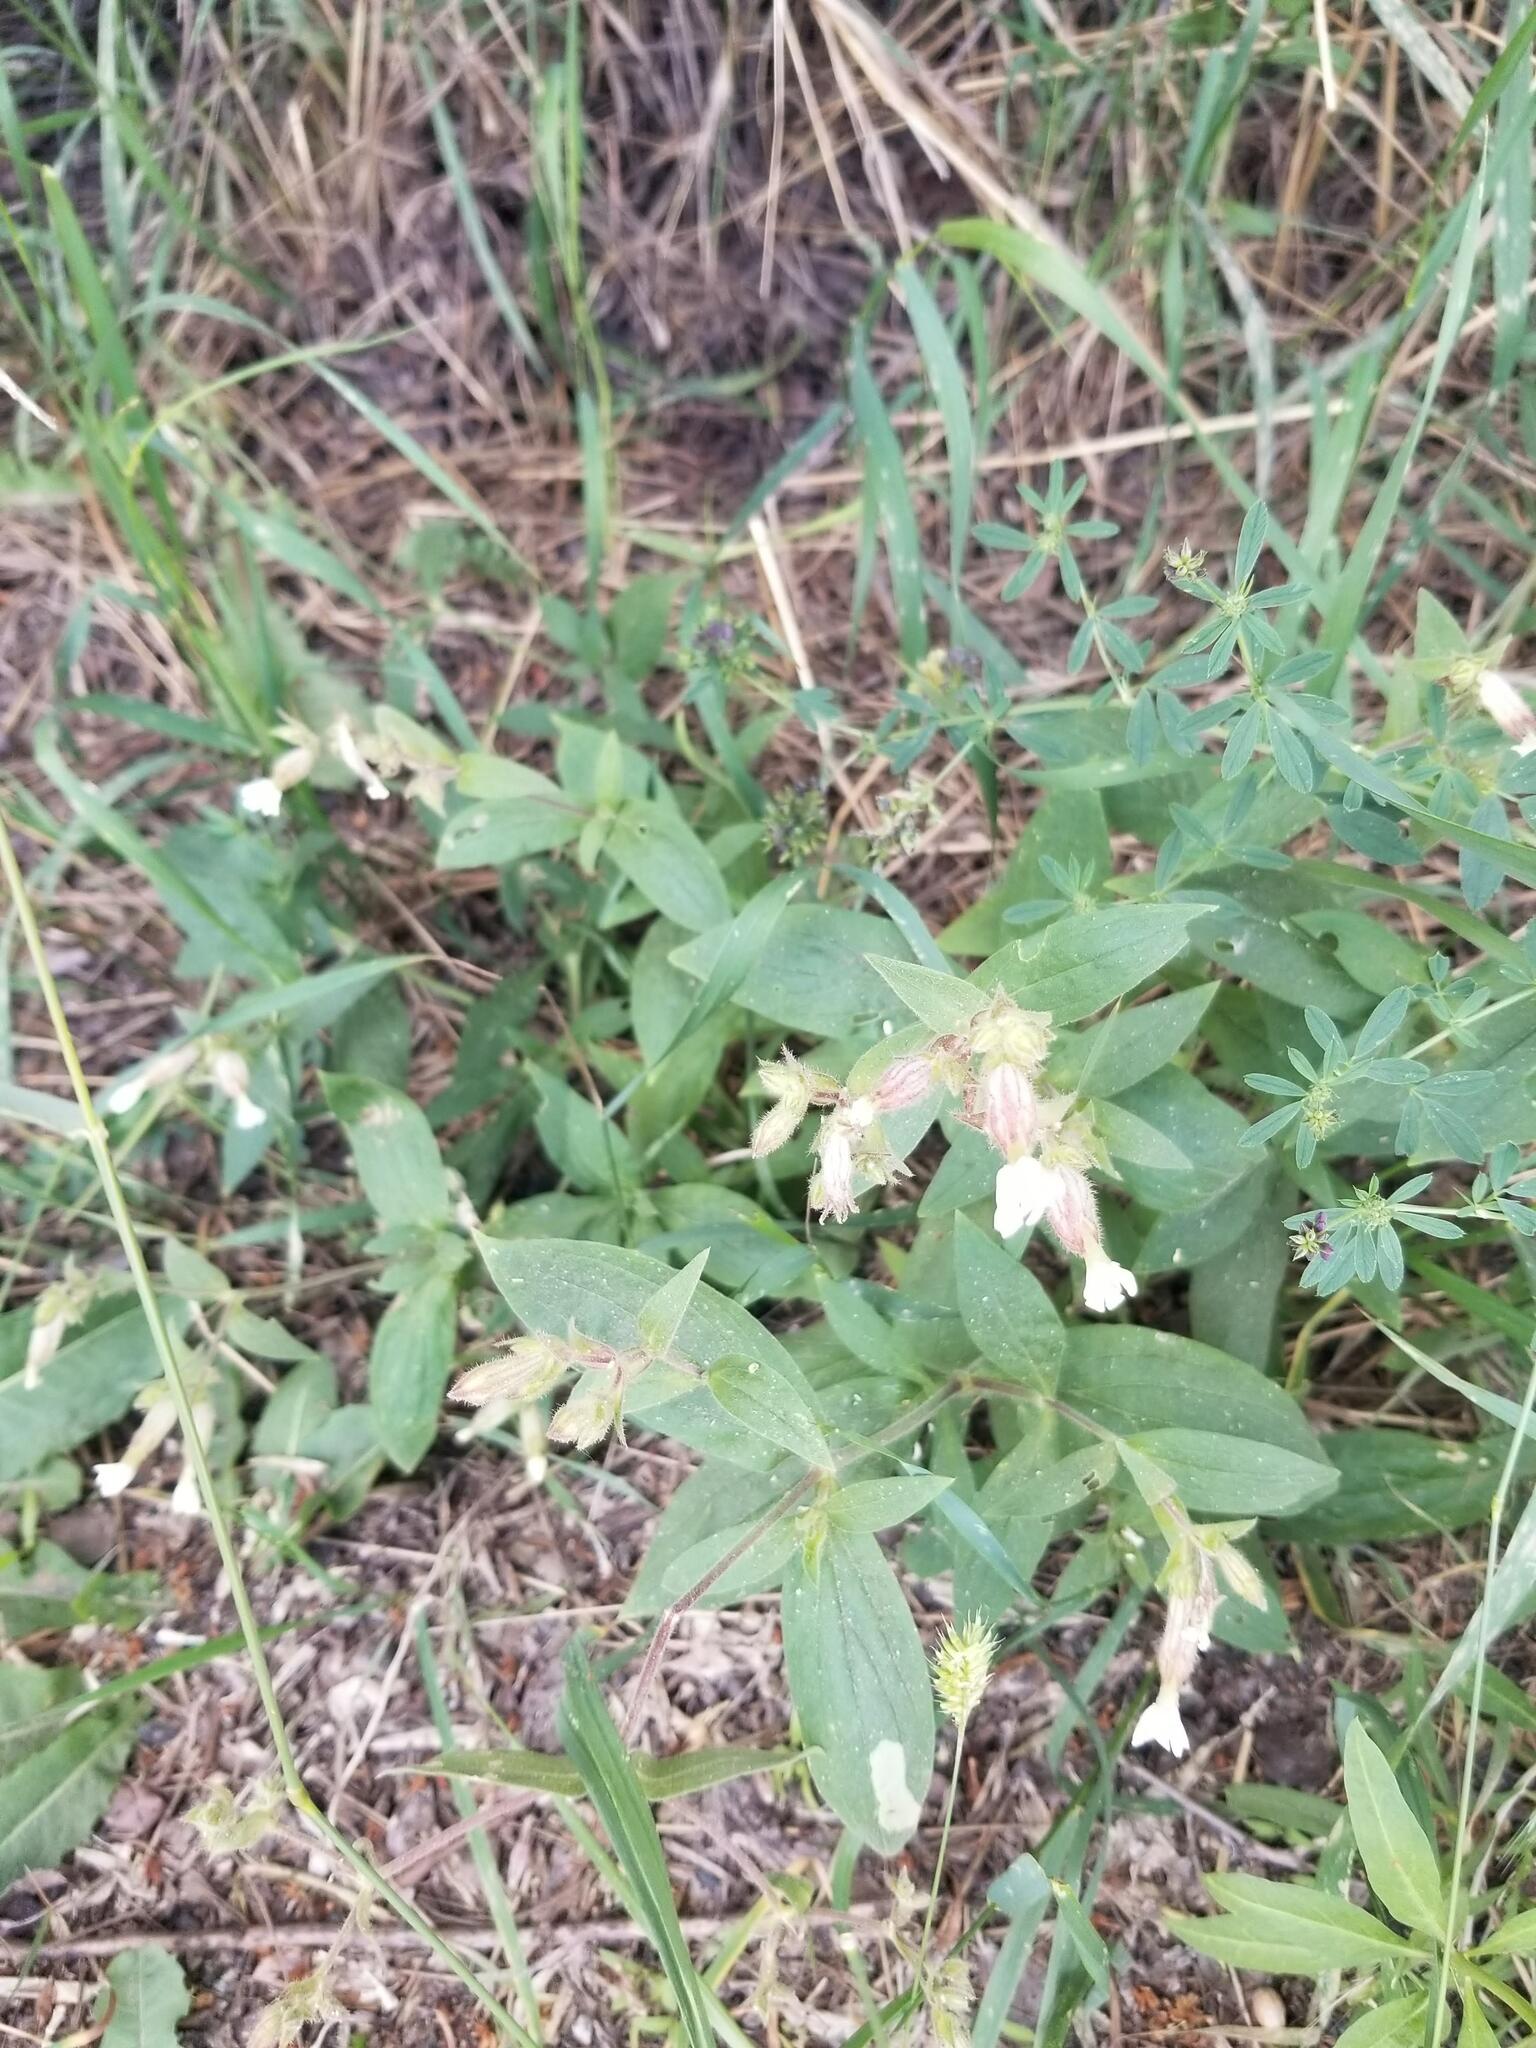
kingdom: Plantae
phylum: Tracheophyta
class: Magnoliopsida
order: Caryophyllales
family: Caryophyllaceae
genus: Silene
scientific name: Silene latifolia
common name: White campion
